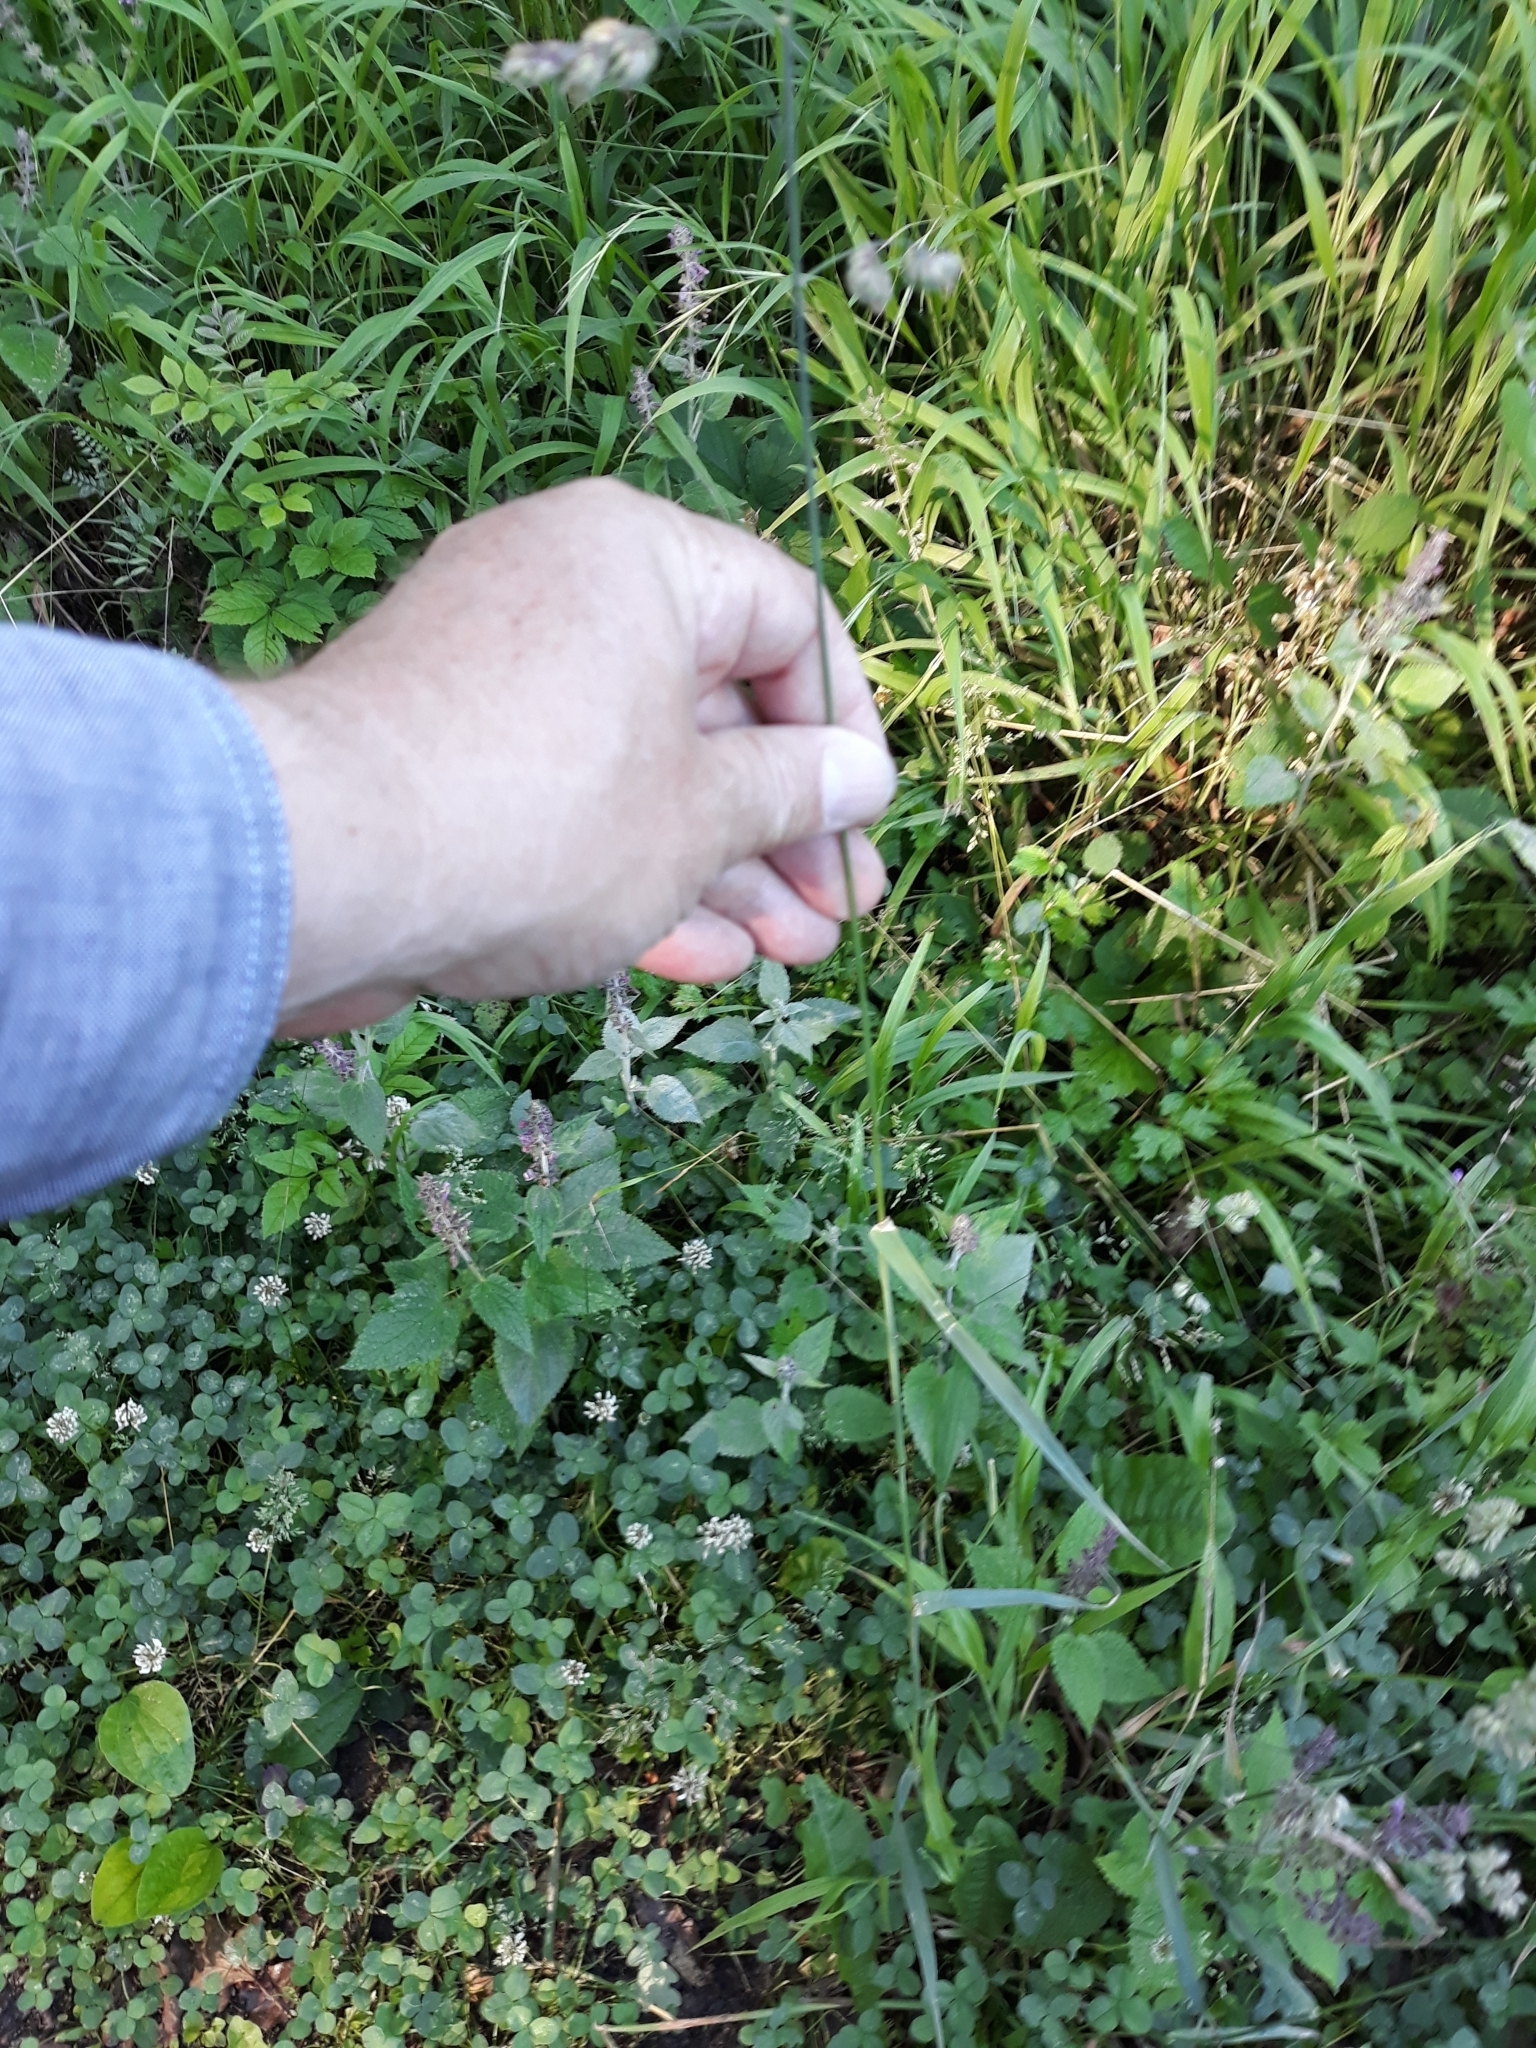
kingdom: Plantae
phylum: Tracheophyta
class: Liliopsida
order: Poales
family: Poaceae
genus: Dactylis
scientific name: Dactylis glomerata
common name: Orchardgrass
